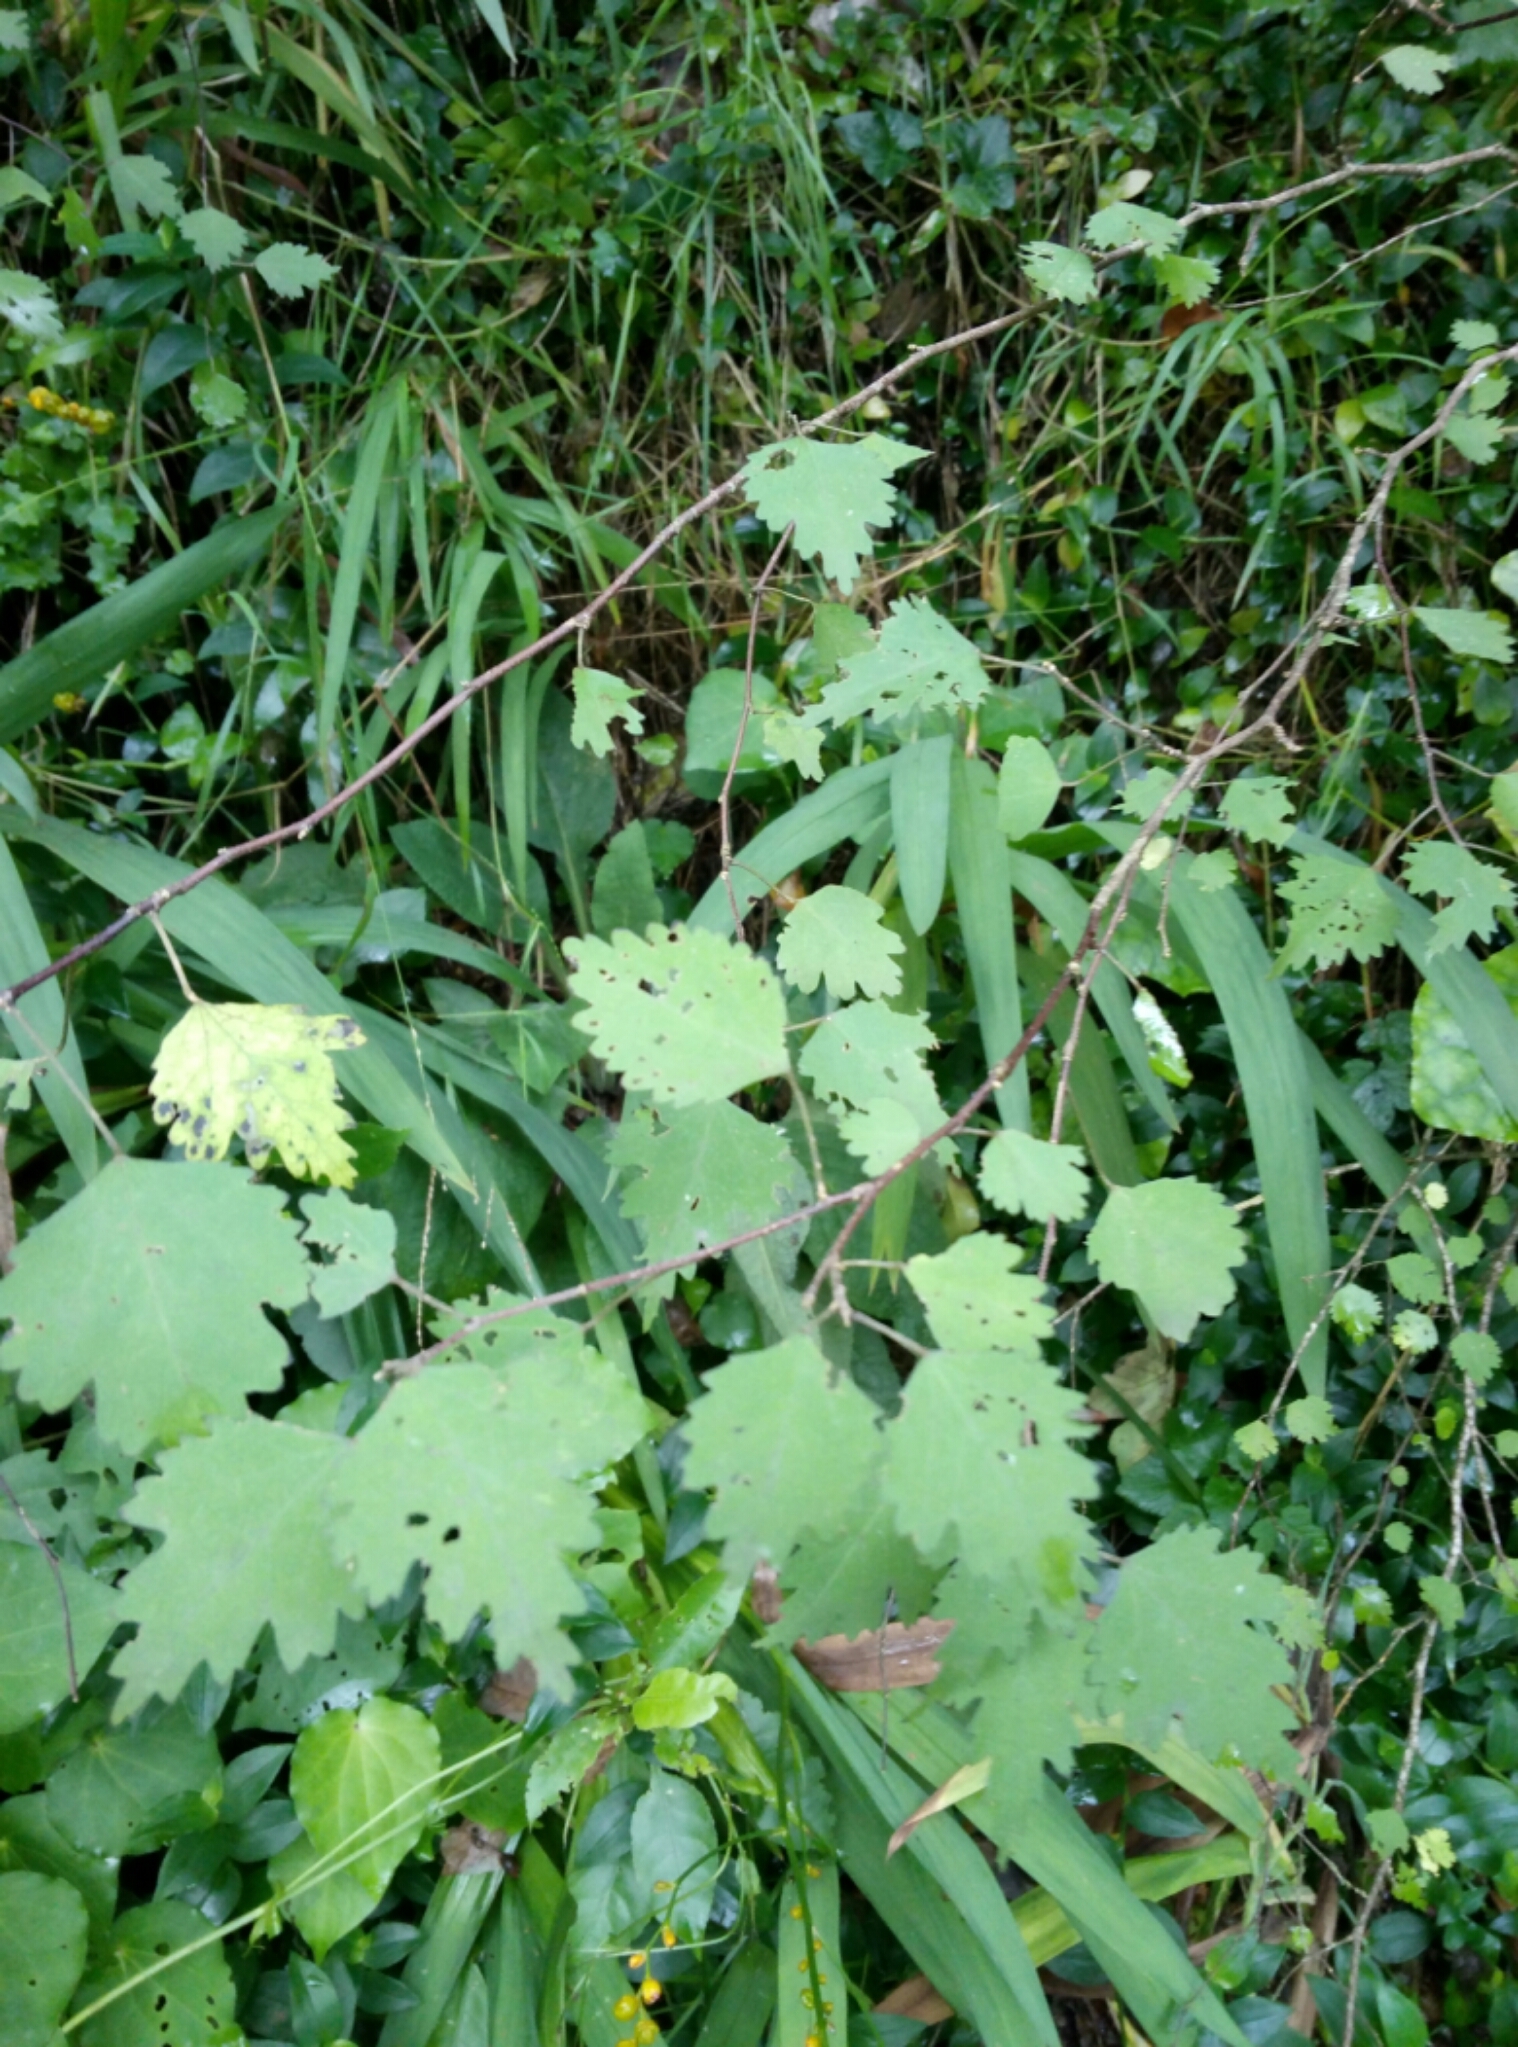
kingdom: Plantae
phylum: Tracheophyta
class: Magnoliopsida
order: Malvales
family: Malvaceae
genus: Plagianthus
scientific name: Plagianthus regius
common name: Manatu
